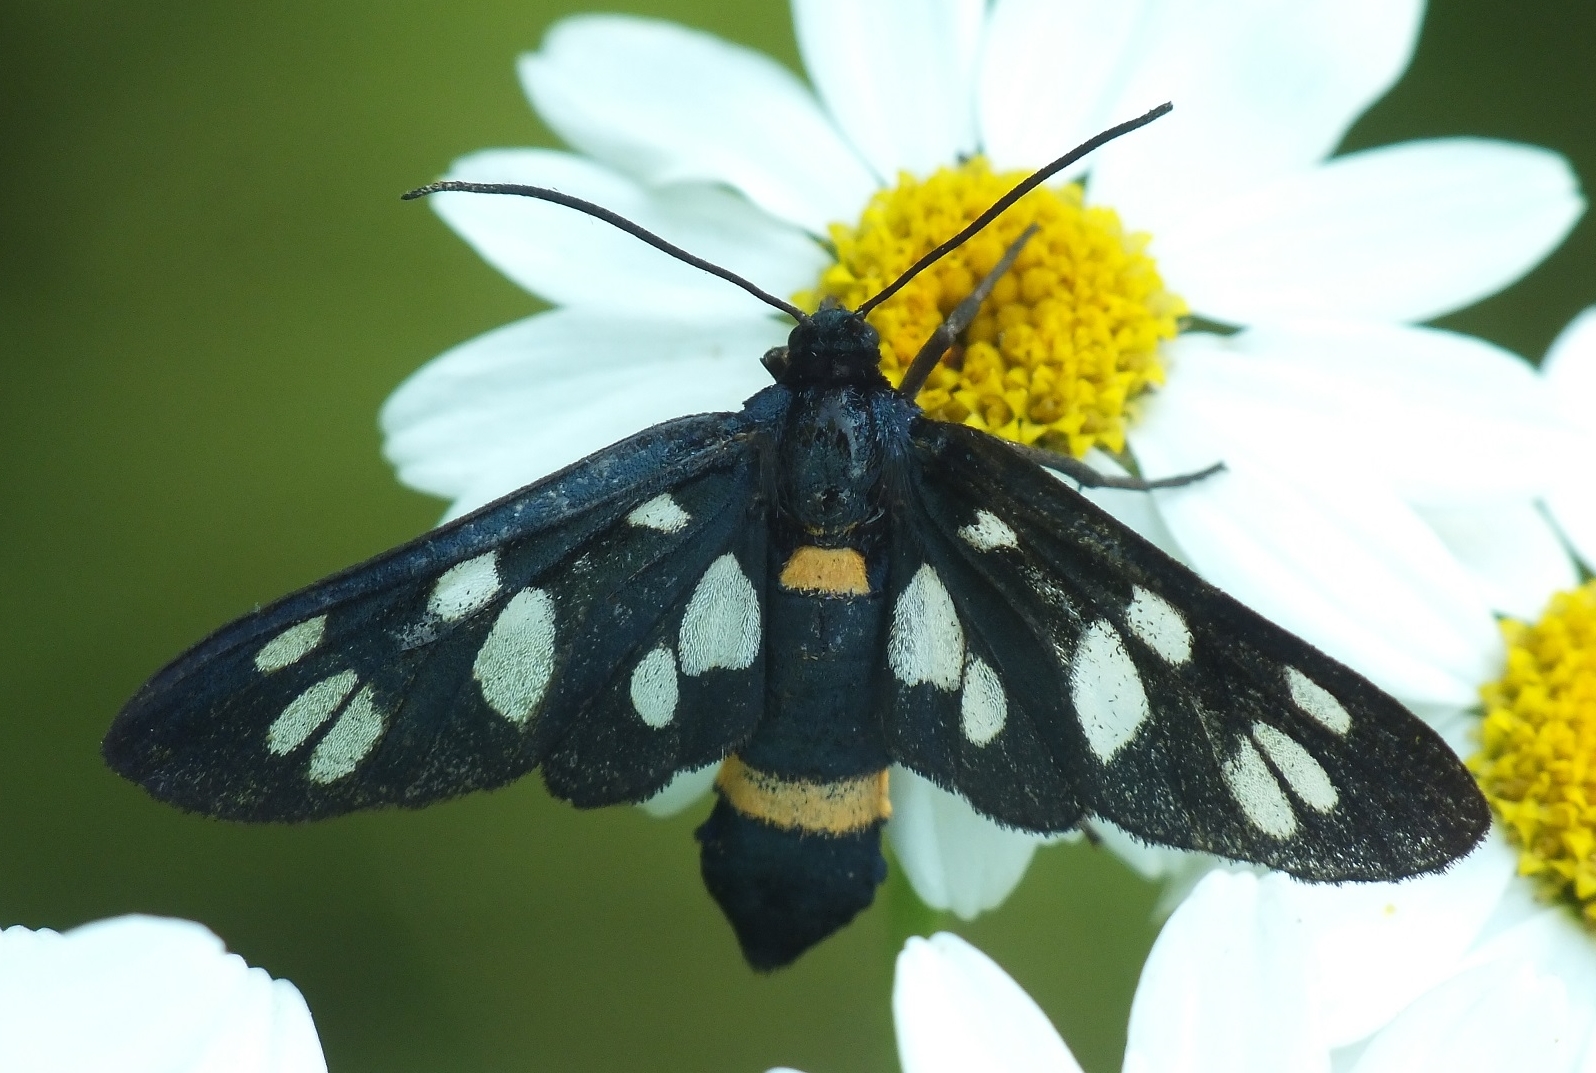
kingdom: Animalia
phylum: Arthropoda
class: Insecta
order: Lepidoptera
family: Erebidae
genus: Amata
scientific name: Amata nigricornis
